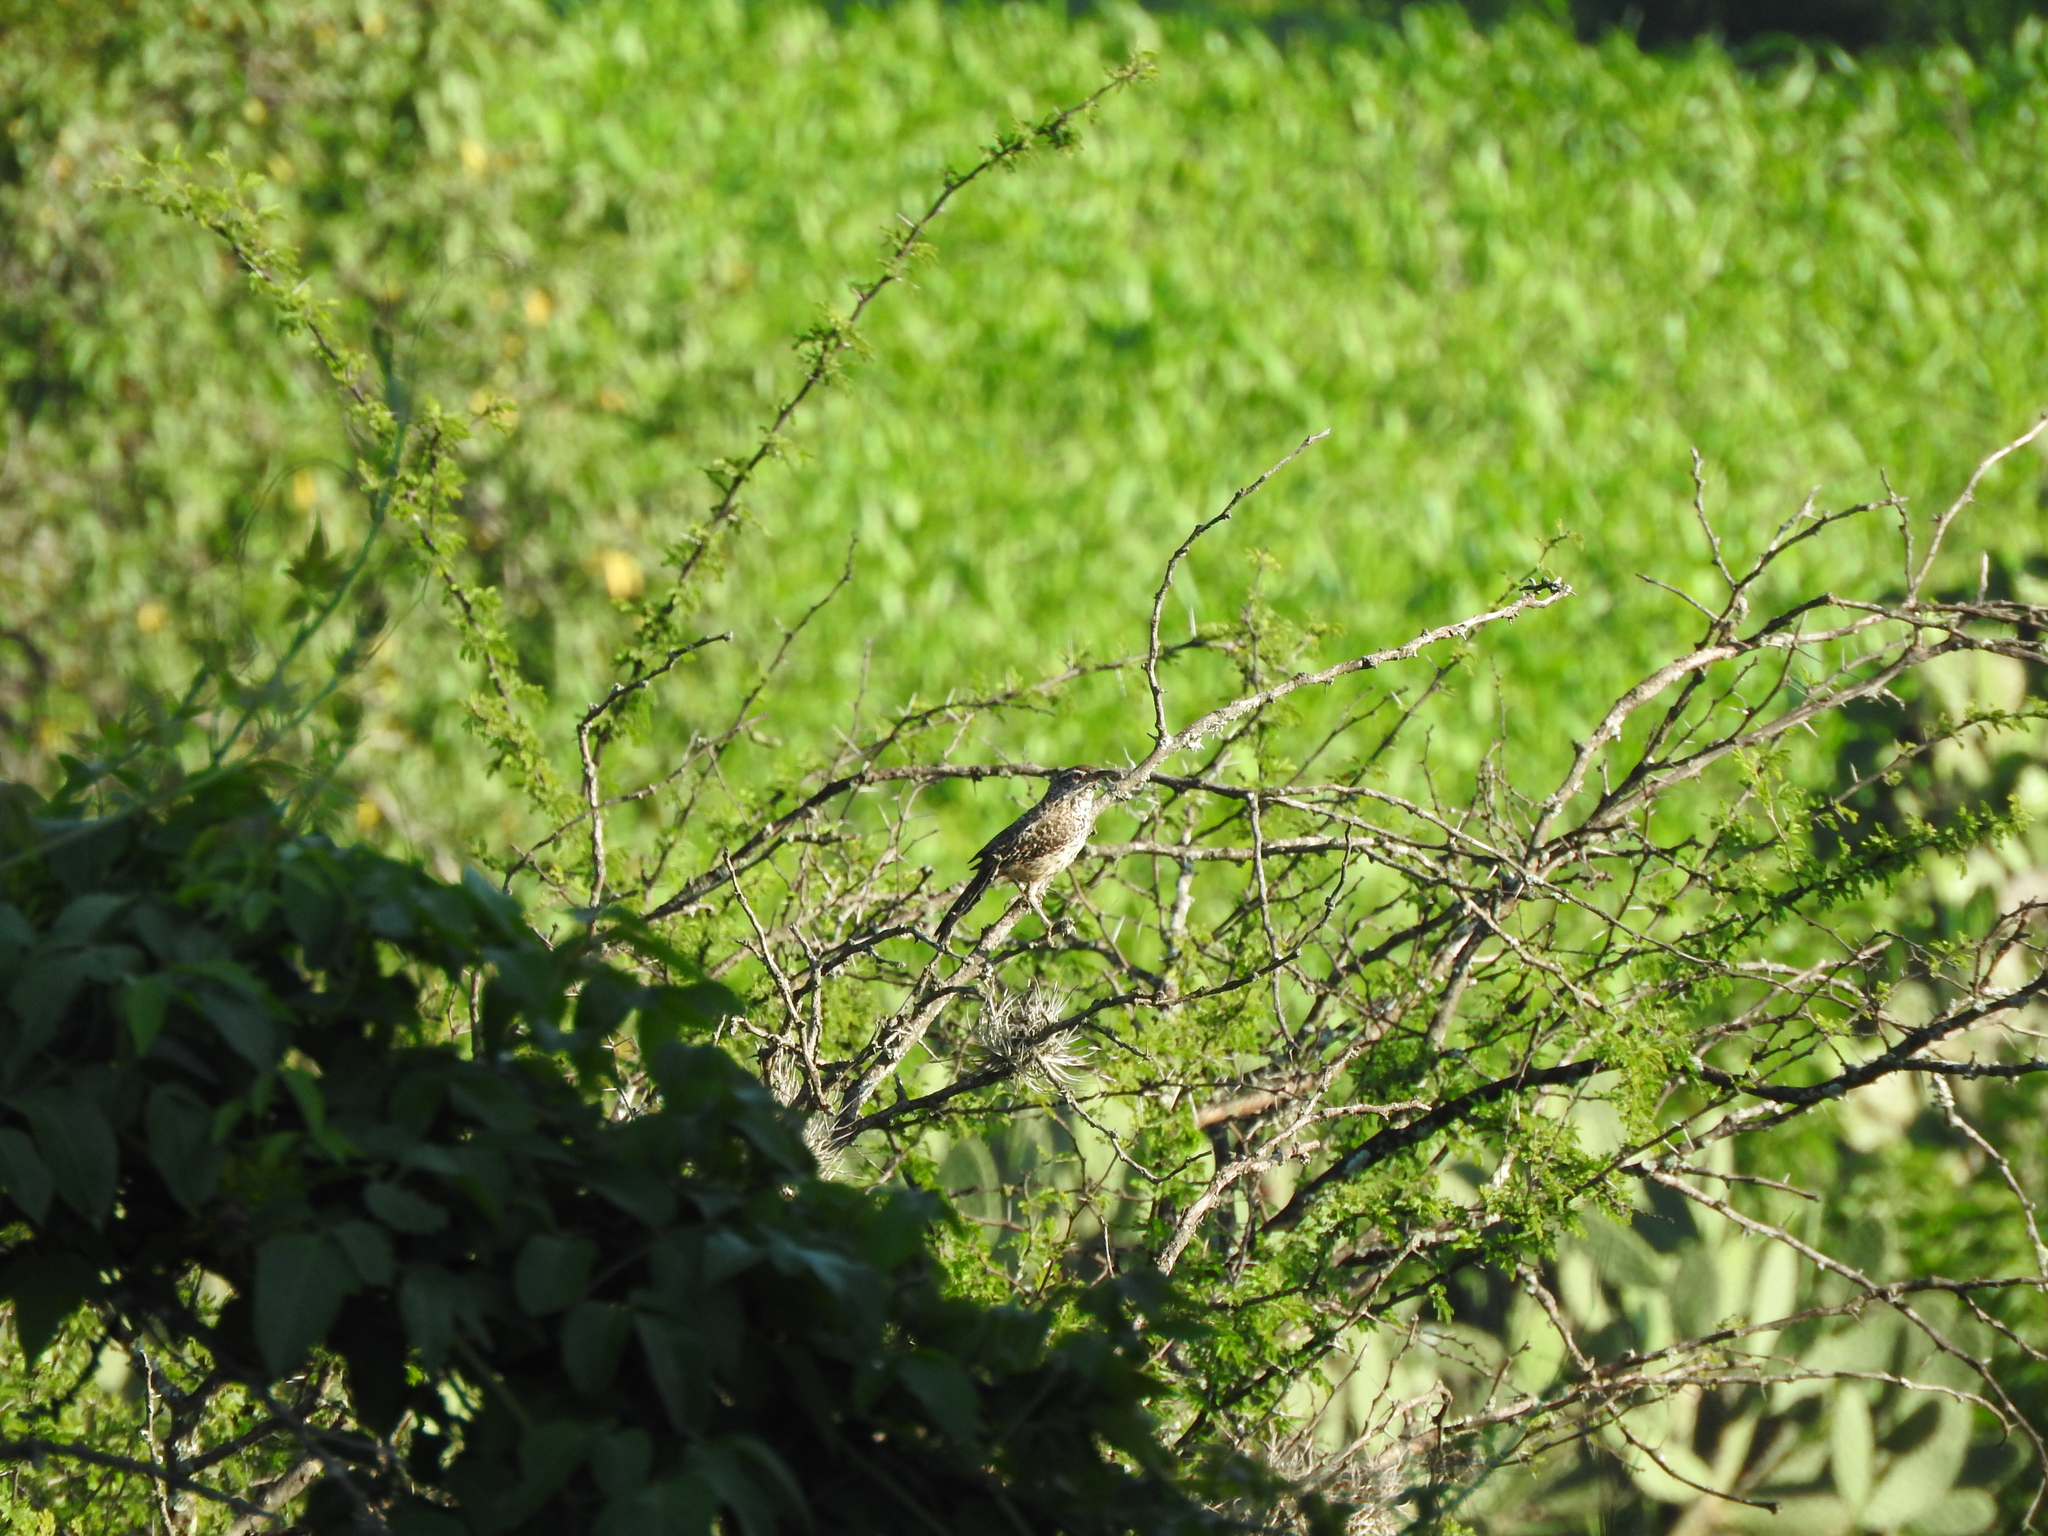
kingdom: Animalia
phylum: Chordata
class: Aves
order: Passeriformes
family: Troglodytidae
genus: Campylorhynchus
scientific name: Campylorhynchus brunneicapillus
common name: Cactus wren
